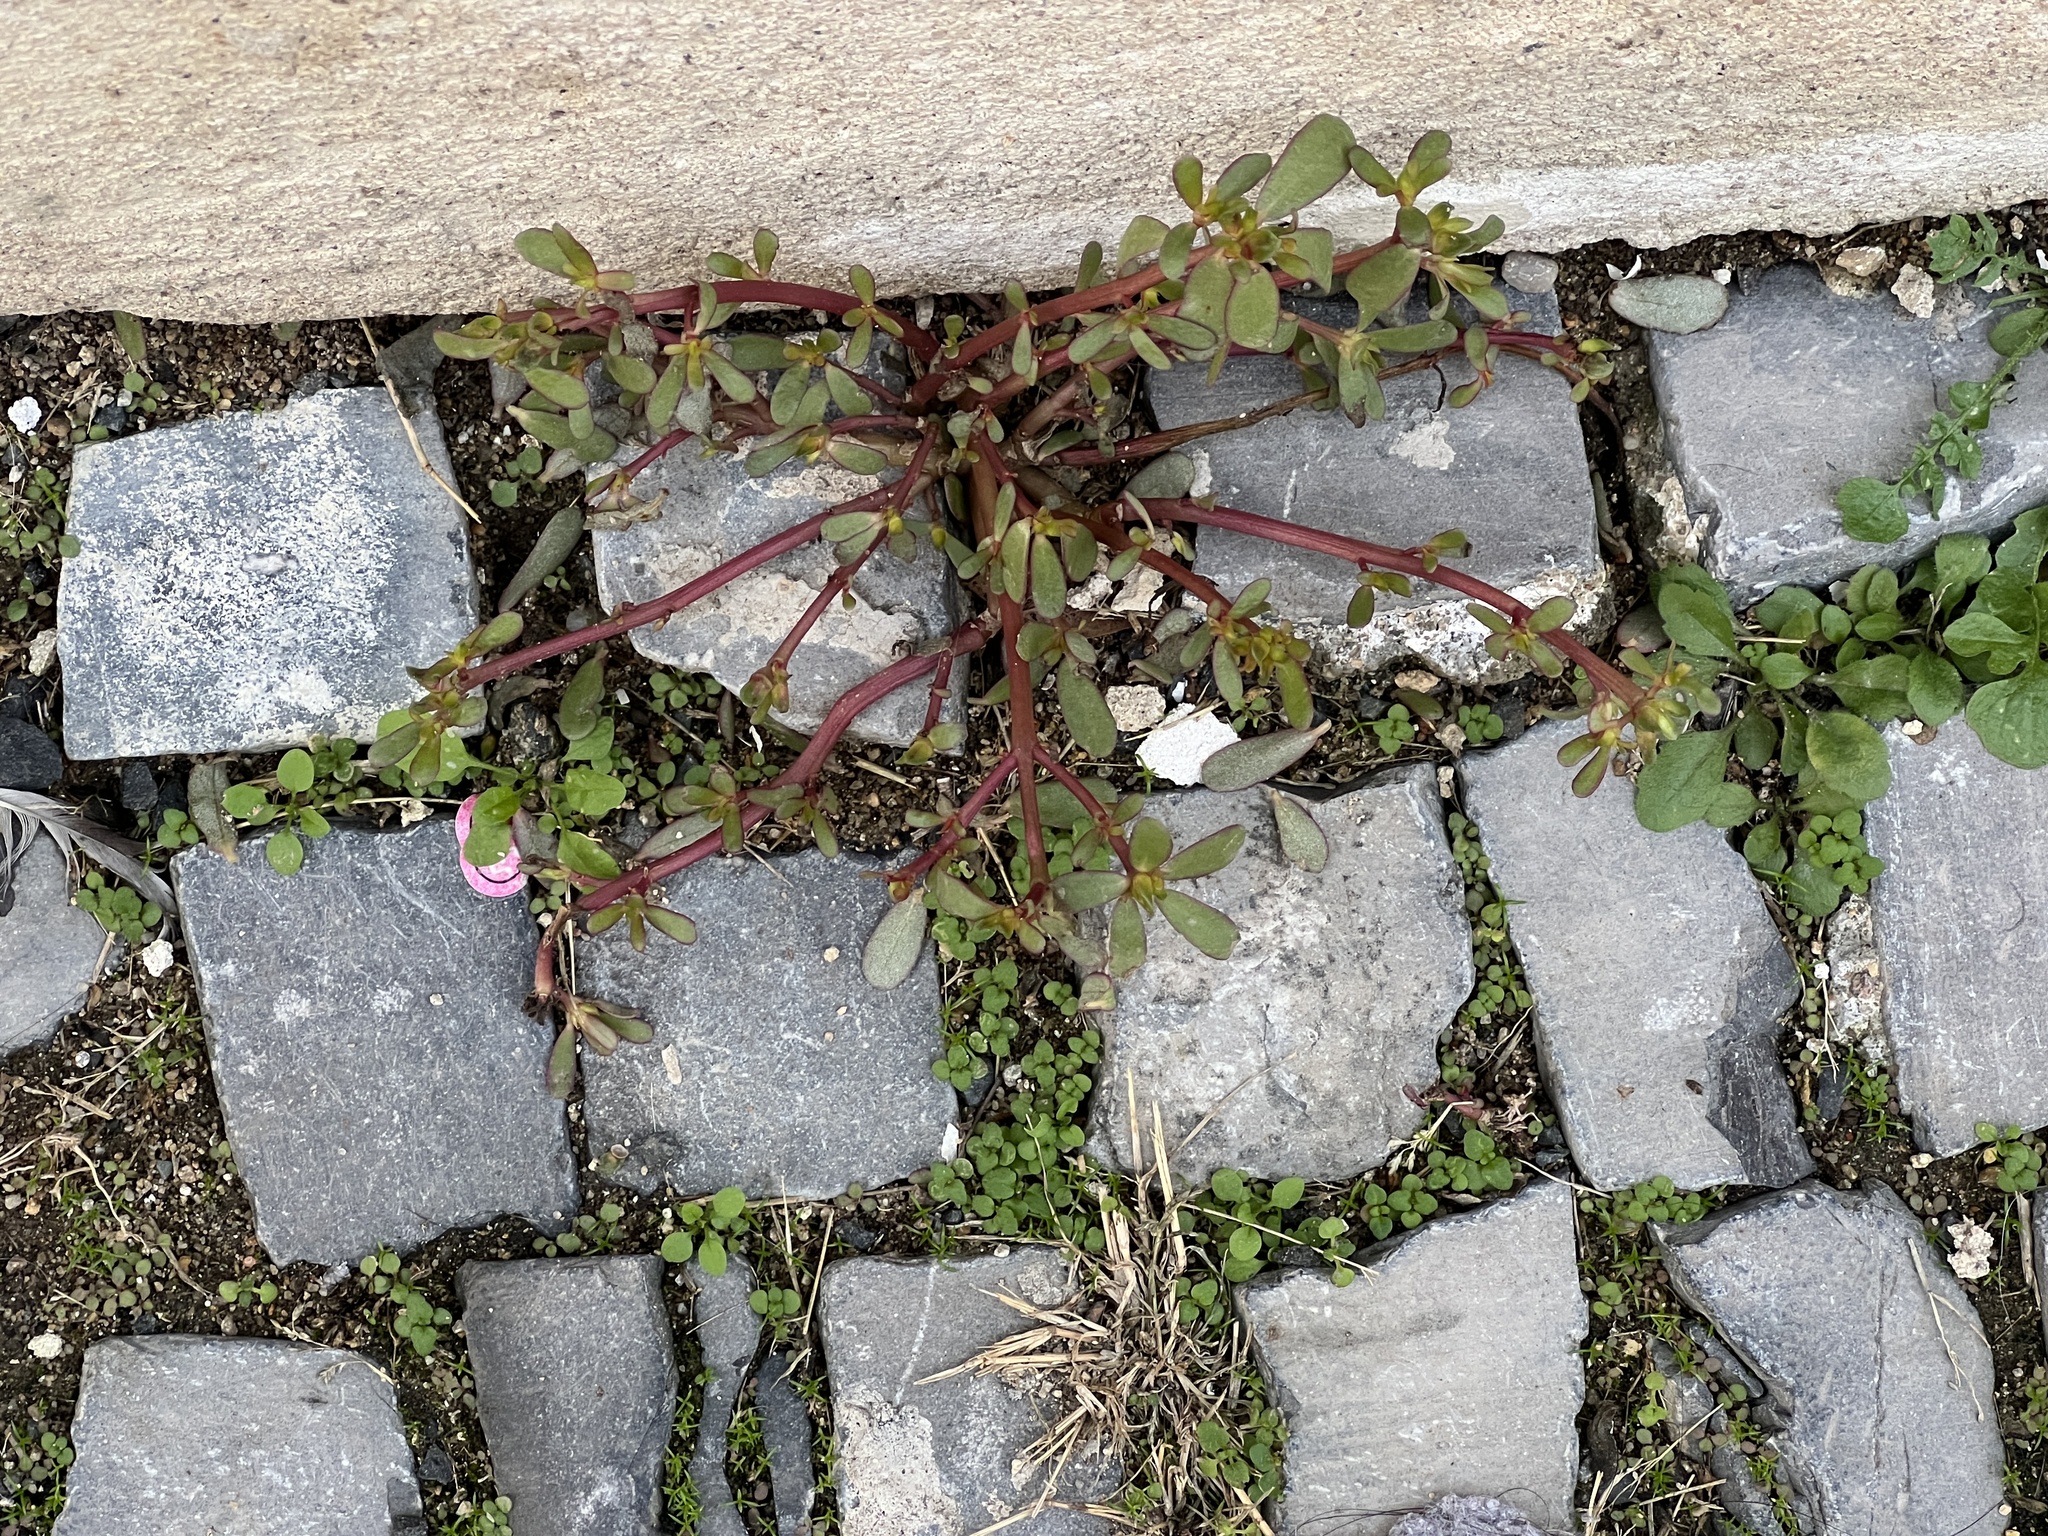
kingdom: Plantae
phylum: Tracheophyta
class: Magnoliopsida
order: Caryophyllales
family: Portulacaceae
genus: Portulaca
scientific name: Portulaca oleracea
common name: Common purslane
